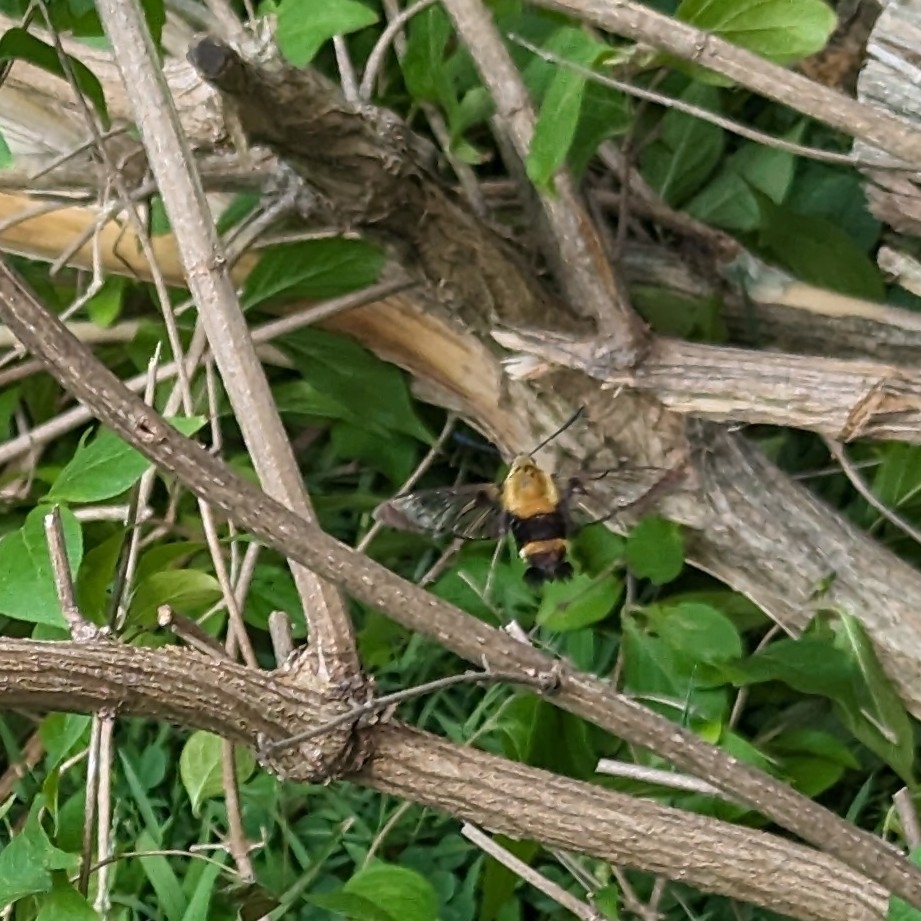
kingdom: Animalia
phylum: Arthropoda
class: Insecta
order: Lepidoptera
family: Sphingidae
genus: Hemaris
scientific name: Hemaris diffinis
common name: Bumblebee moth
